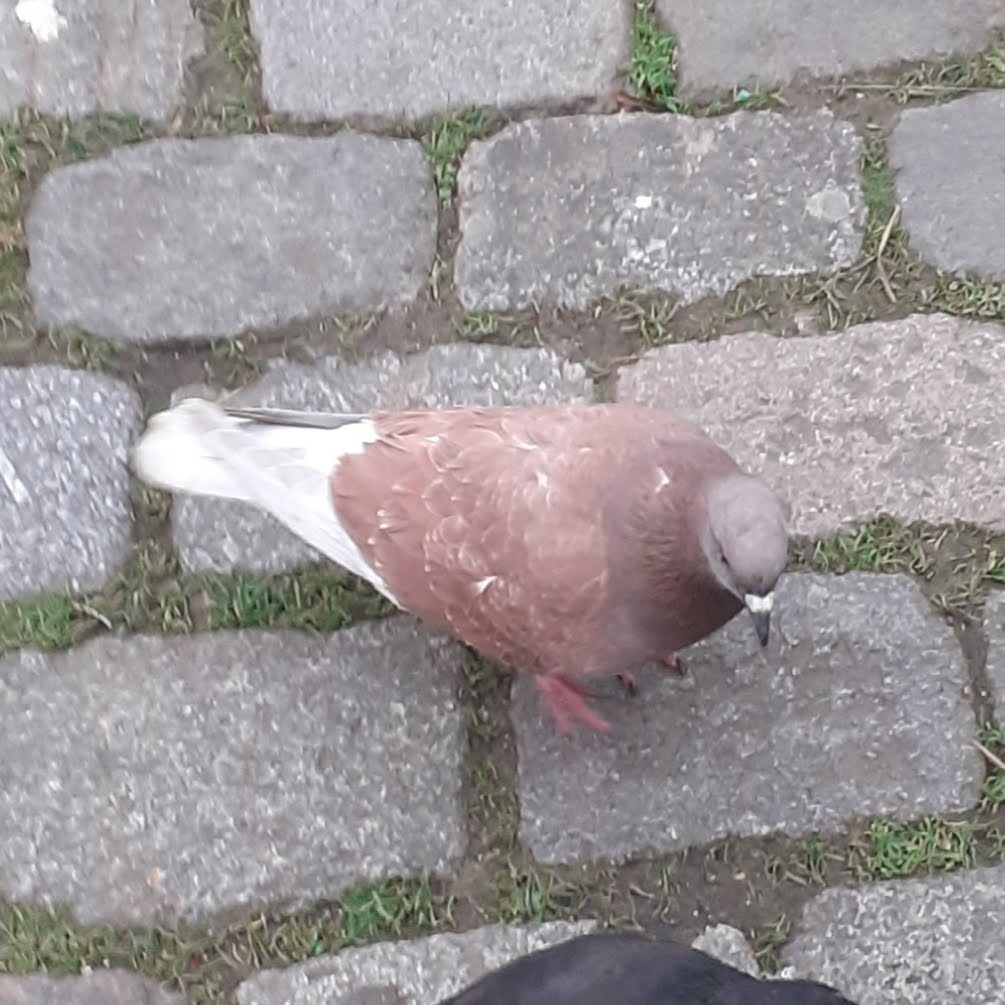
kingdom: Animalia
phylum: Chordata
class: Aves
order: Columbiformes
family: Columbidae
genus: Columba
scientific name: Columba livia
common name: Rock pigeon
